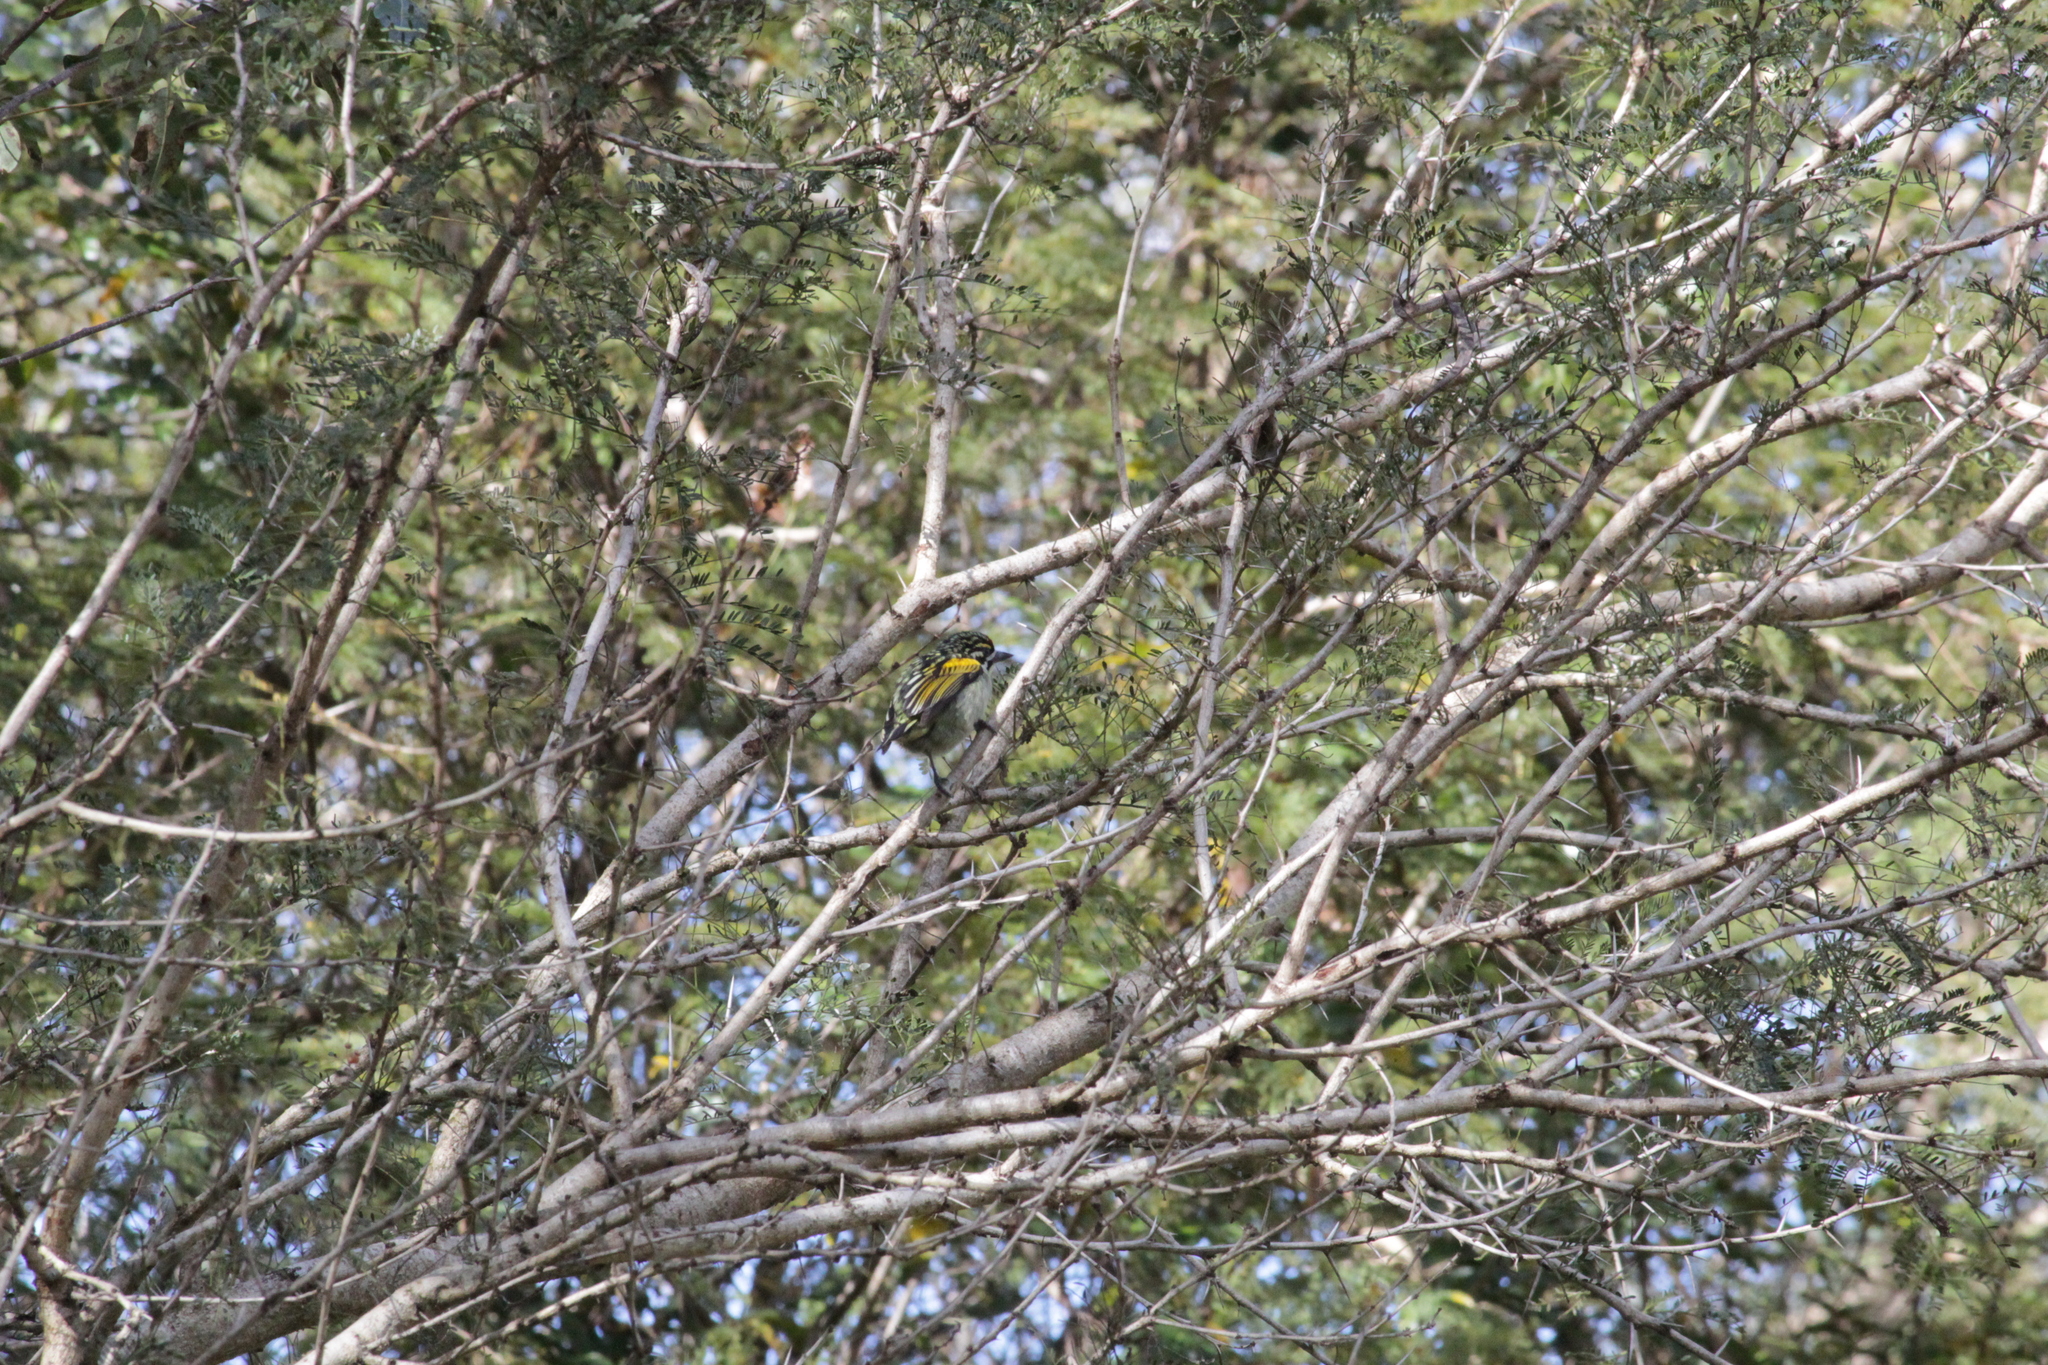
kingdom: Animalia
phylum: Chordata
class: Aves
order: Piciformes
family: Lybiidae
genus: Pogoniulus
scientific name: Pogoniulus pusillus
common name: Red-fronted tinkerbird
